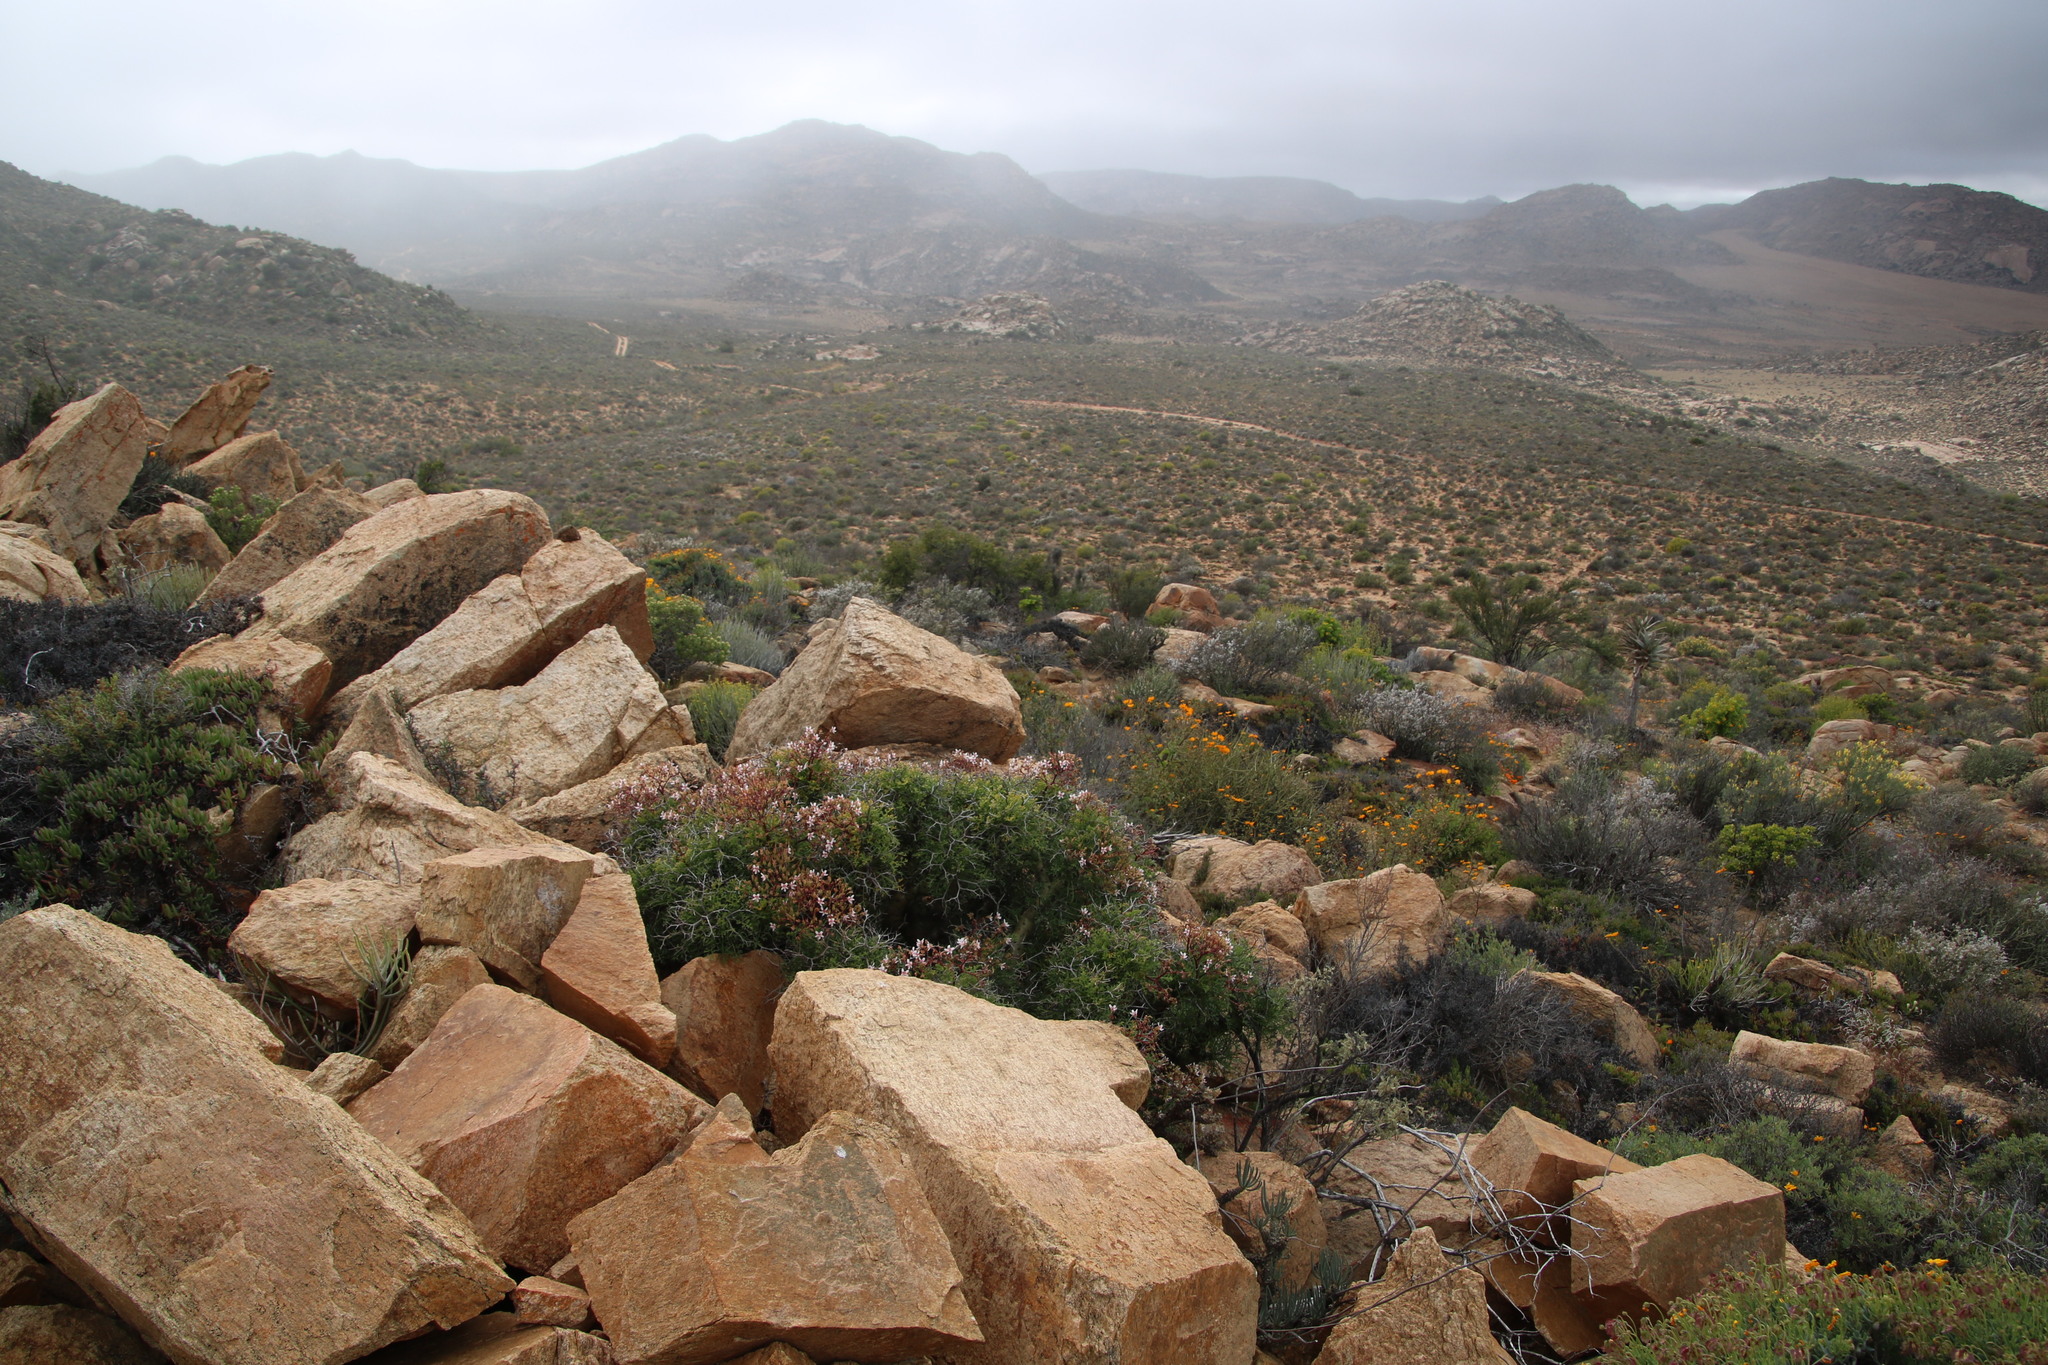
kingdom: Plantae
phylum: Tracheophyta
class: Magnoliopsida
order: Geraniales
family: Geraniaceae
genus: Pelargonium
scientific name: Pelargonium crithmifolium
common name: Samphire-leaf pelargonium
